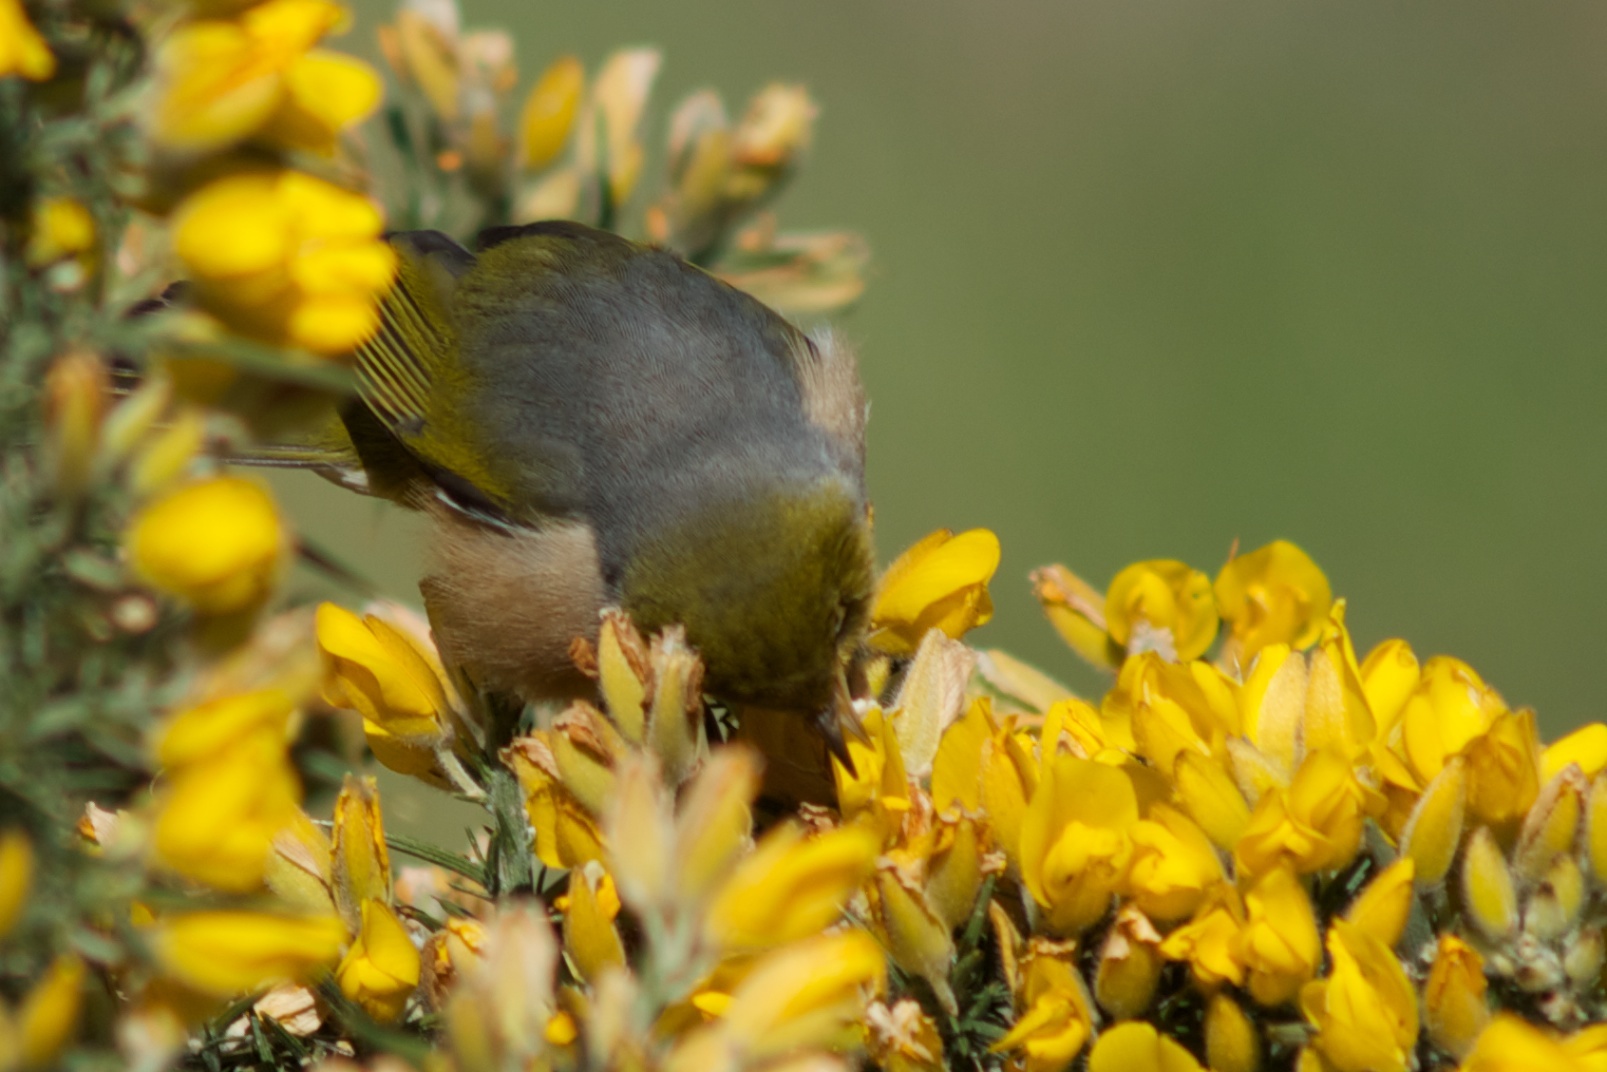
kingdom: Plantae
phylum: Tracheophyta
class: Magnoliopsida
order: Fabales
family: Fabaceae
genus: Ulex
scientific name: Ulex europaeus
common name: Common gorse
